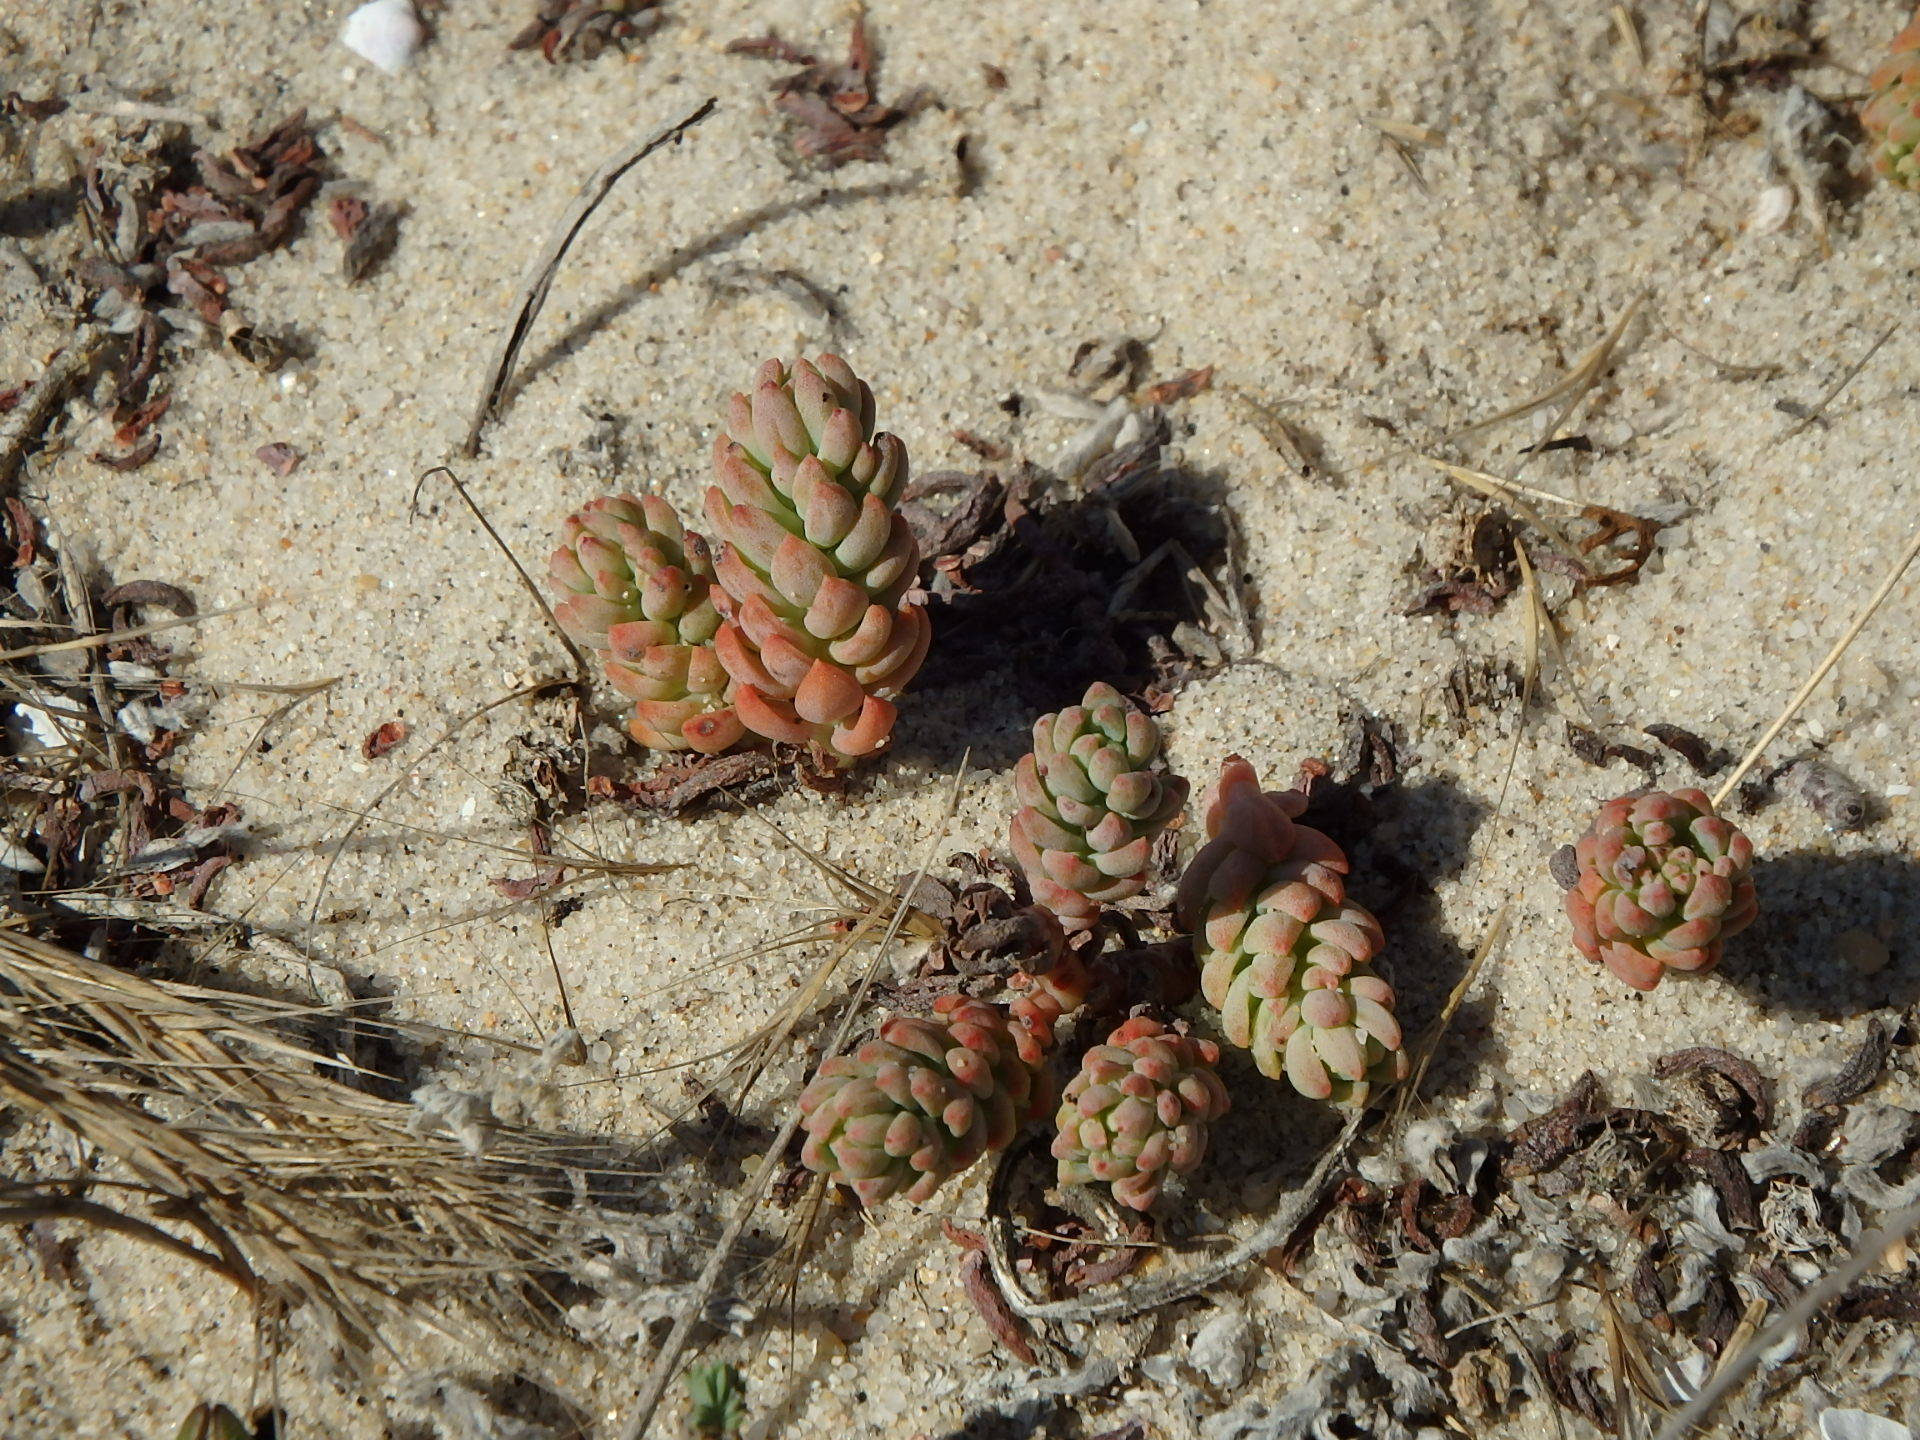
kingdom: Plantae
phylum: Tracheophyta
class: Magnoliopsida
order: Saxifragales
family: Crassulaceae
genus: Petrosedum
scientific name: Petrosedum sediforme
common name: Pale stonecrop
